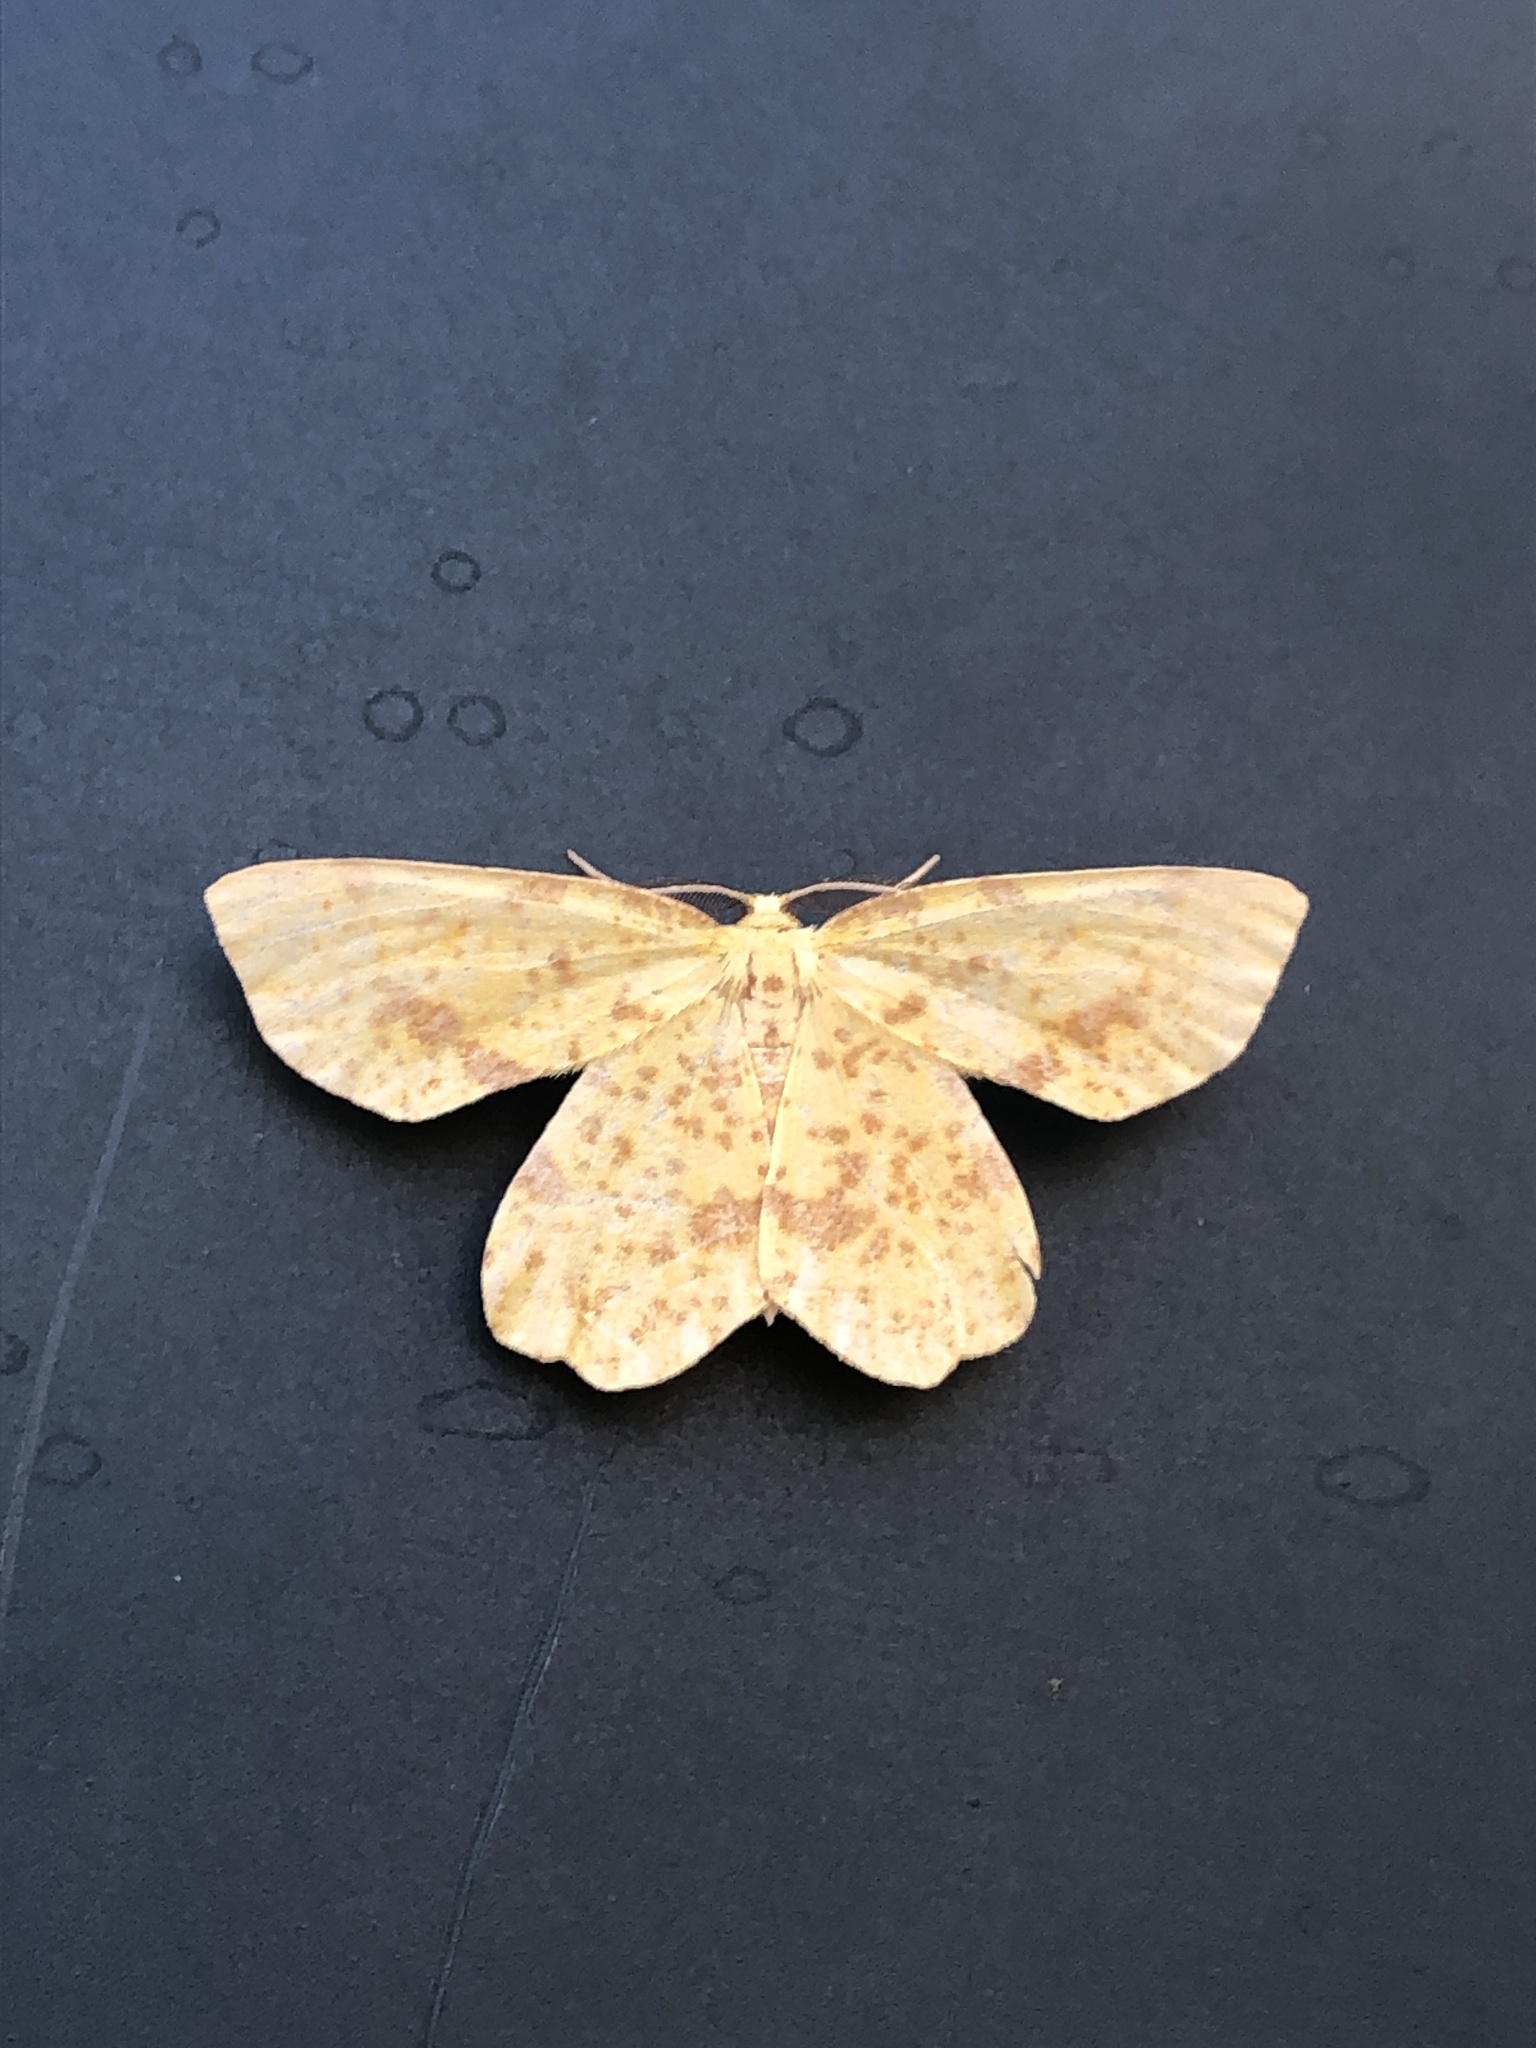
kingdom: Animalia
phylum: Arthropoda
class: Insecta
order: Lepidoptera
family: Geometridae
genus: Xanthotype
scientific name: Xanthotype
